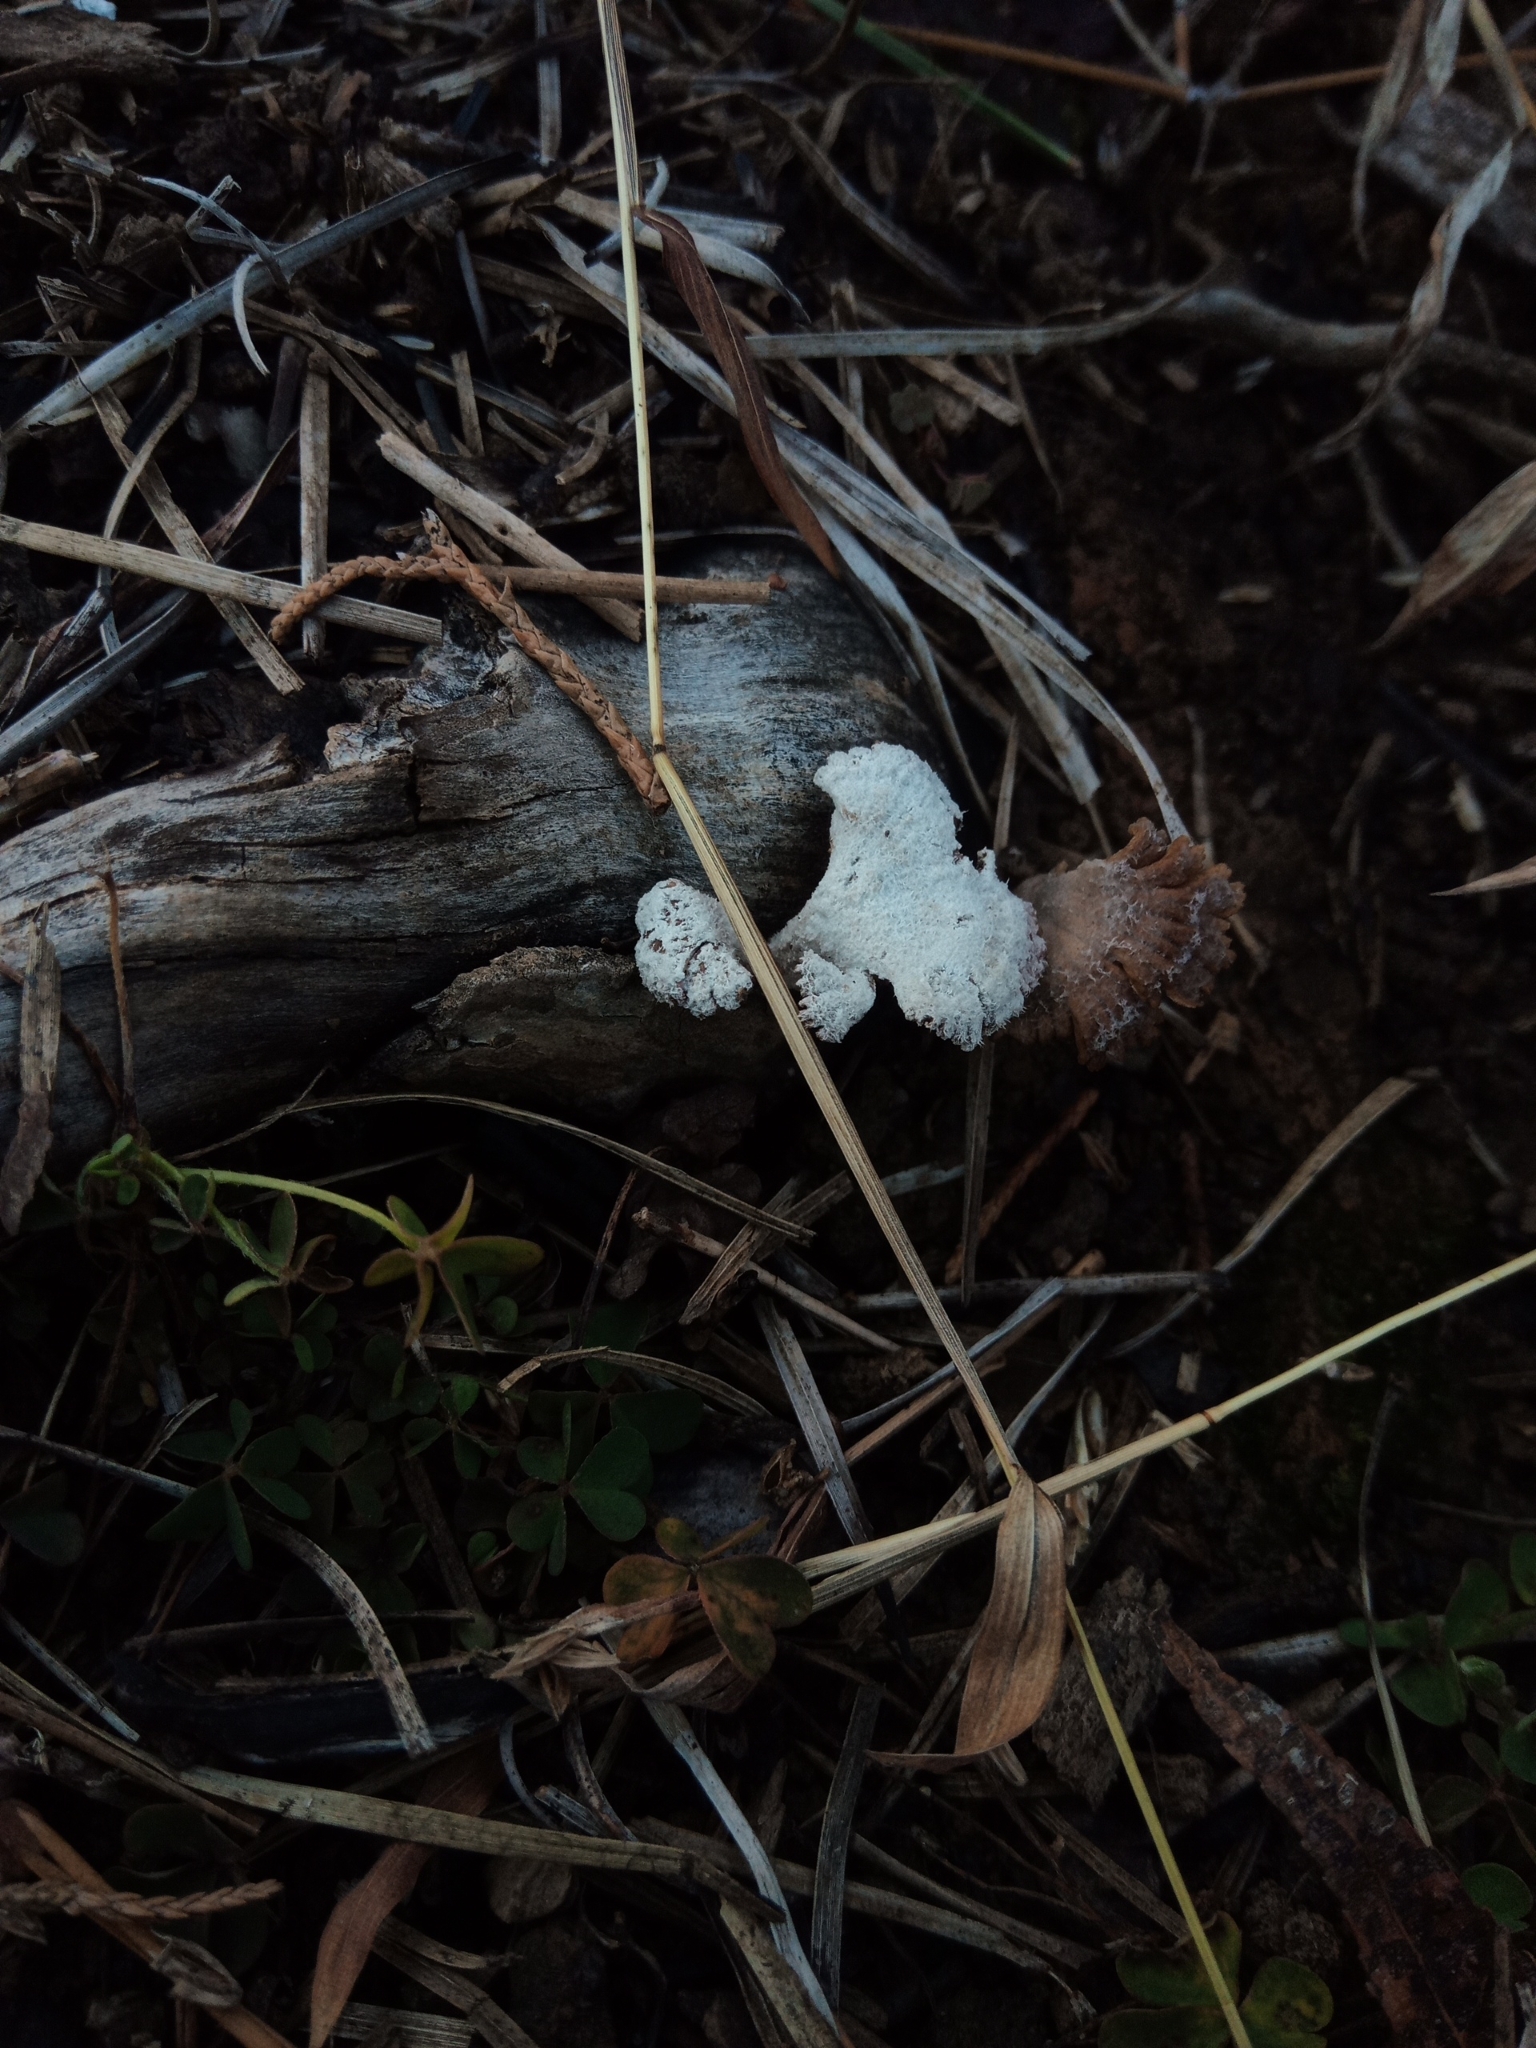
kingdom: Fungi
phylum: Basidiomycota
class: Agaricomycetes
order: Agaricales
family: Schizophyllaceae
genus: Schizophyllum
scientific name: Schizophyllum commune
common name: Common porecrust
